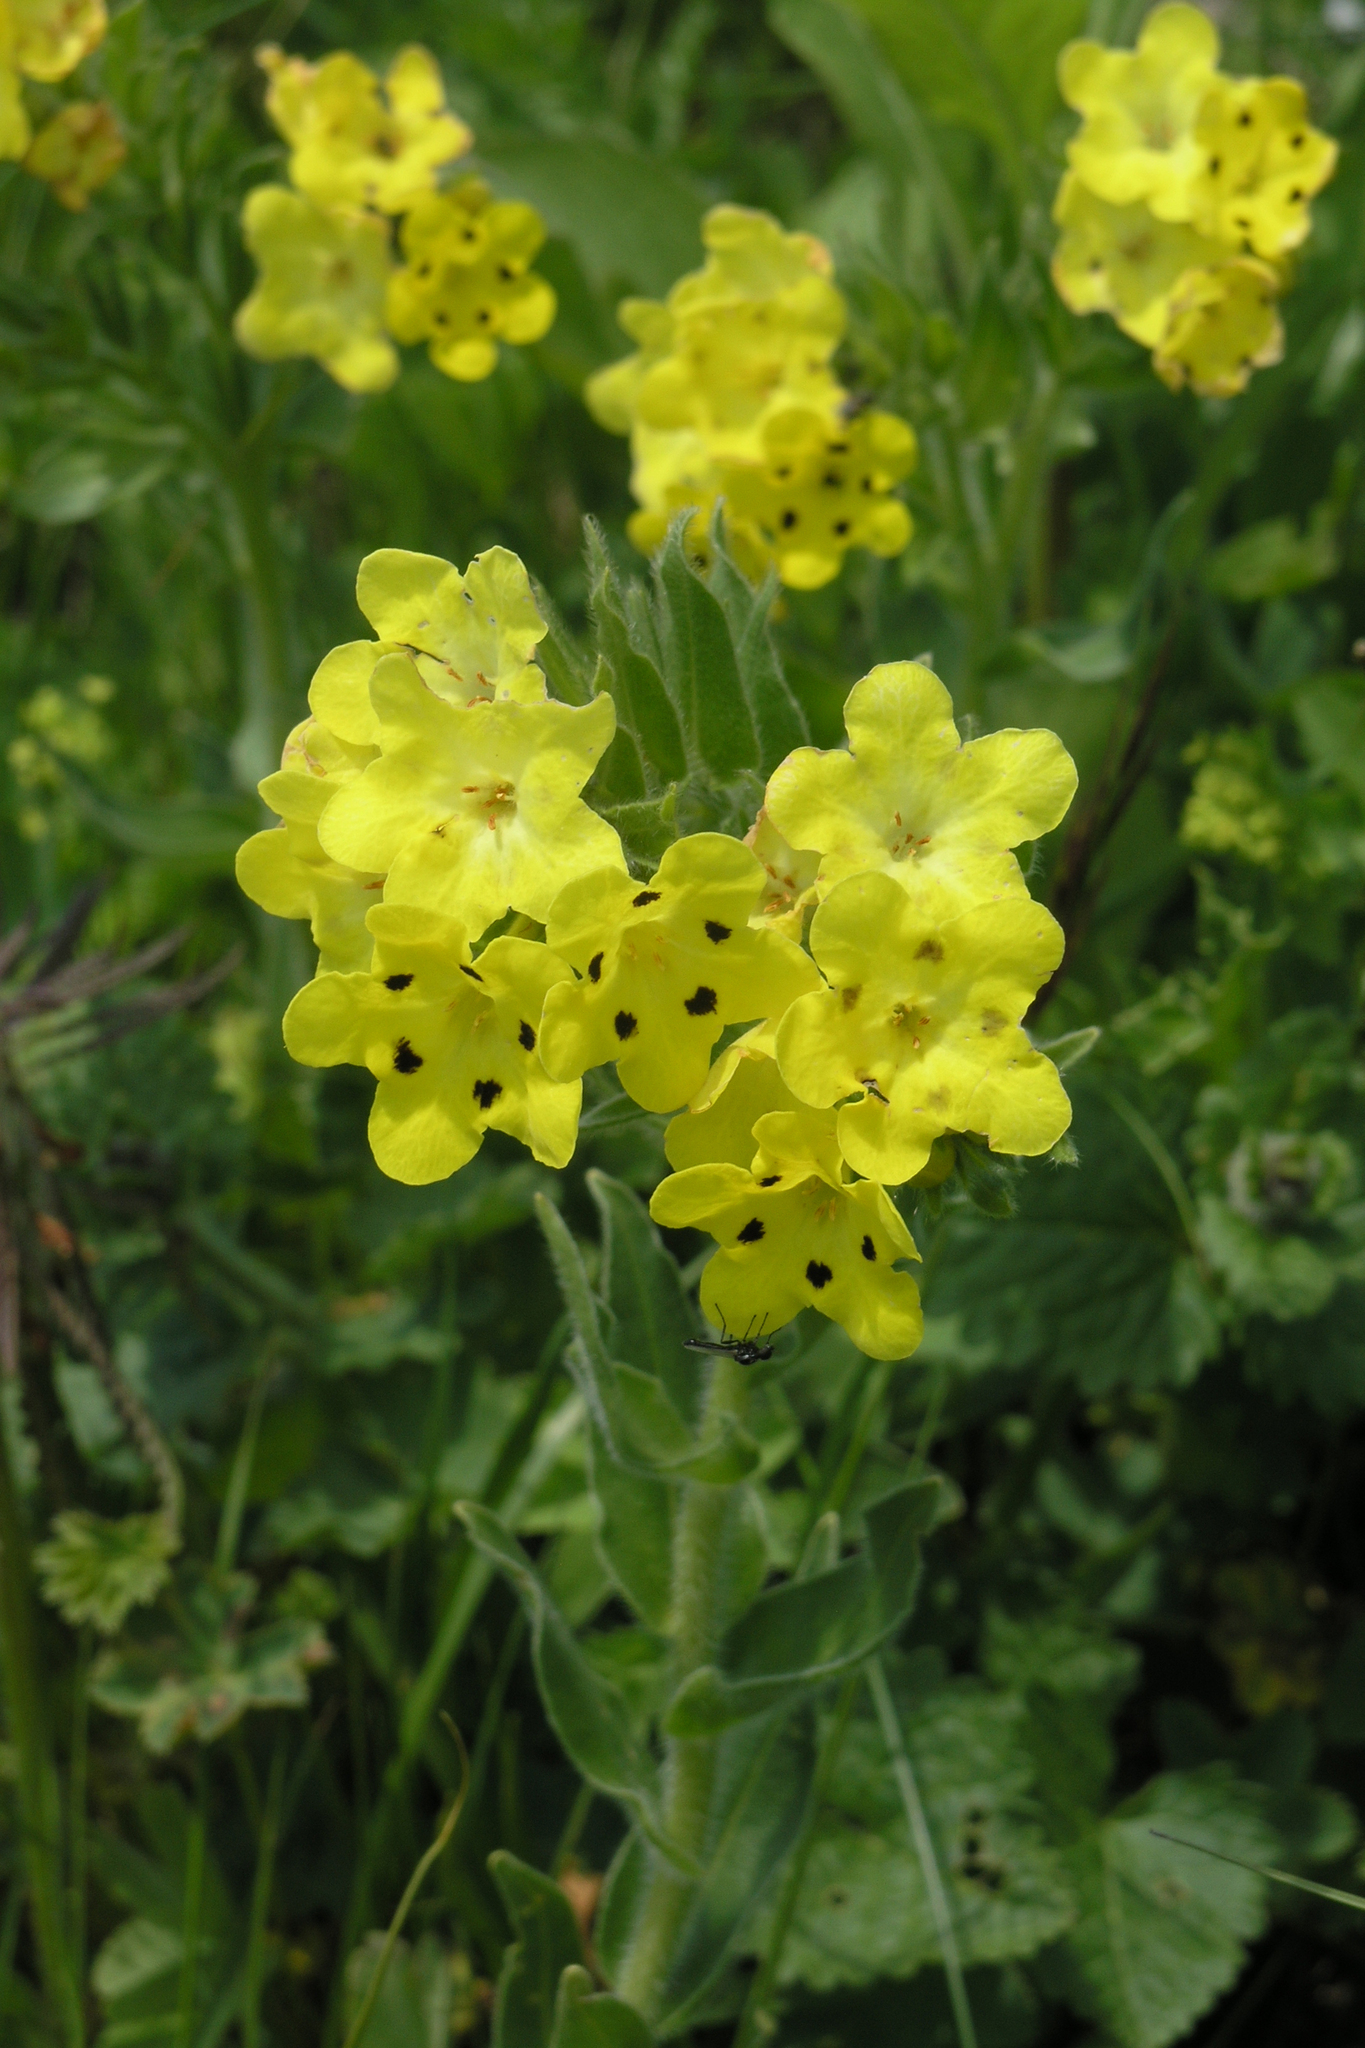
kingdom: Plantae
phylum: Tracheophyta
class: Magnoliopsida
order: Boraginales
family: Boraginaceae
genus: Huynhia
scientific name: Huynhia pulchra
